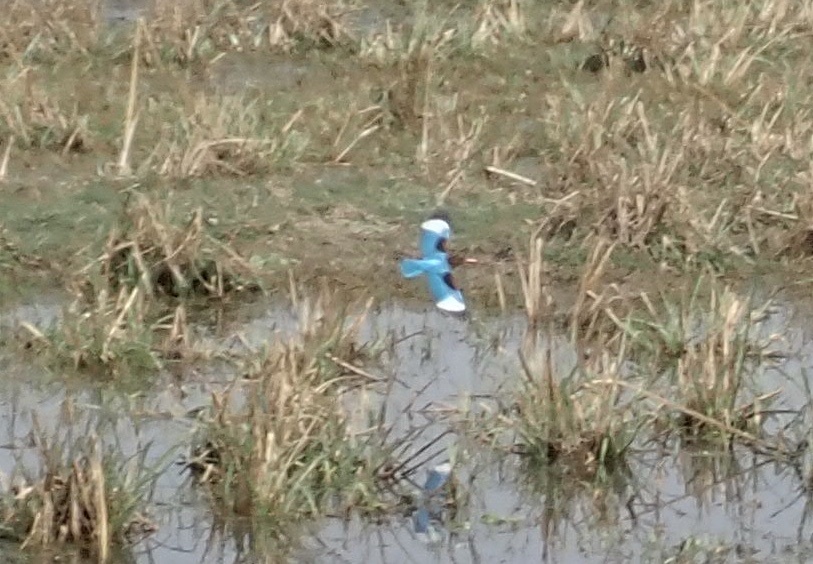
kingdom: Animalia
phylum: Chordata
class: Aves
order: Coraciiformes
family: Alcedinidae
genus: Halcyon
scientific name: Halcyon smyrnensis
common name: White-throated kingfisher
